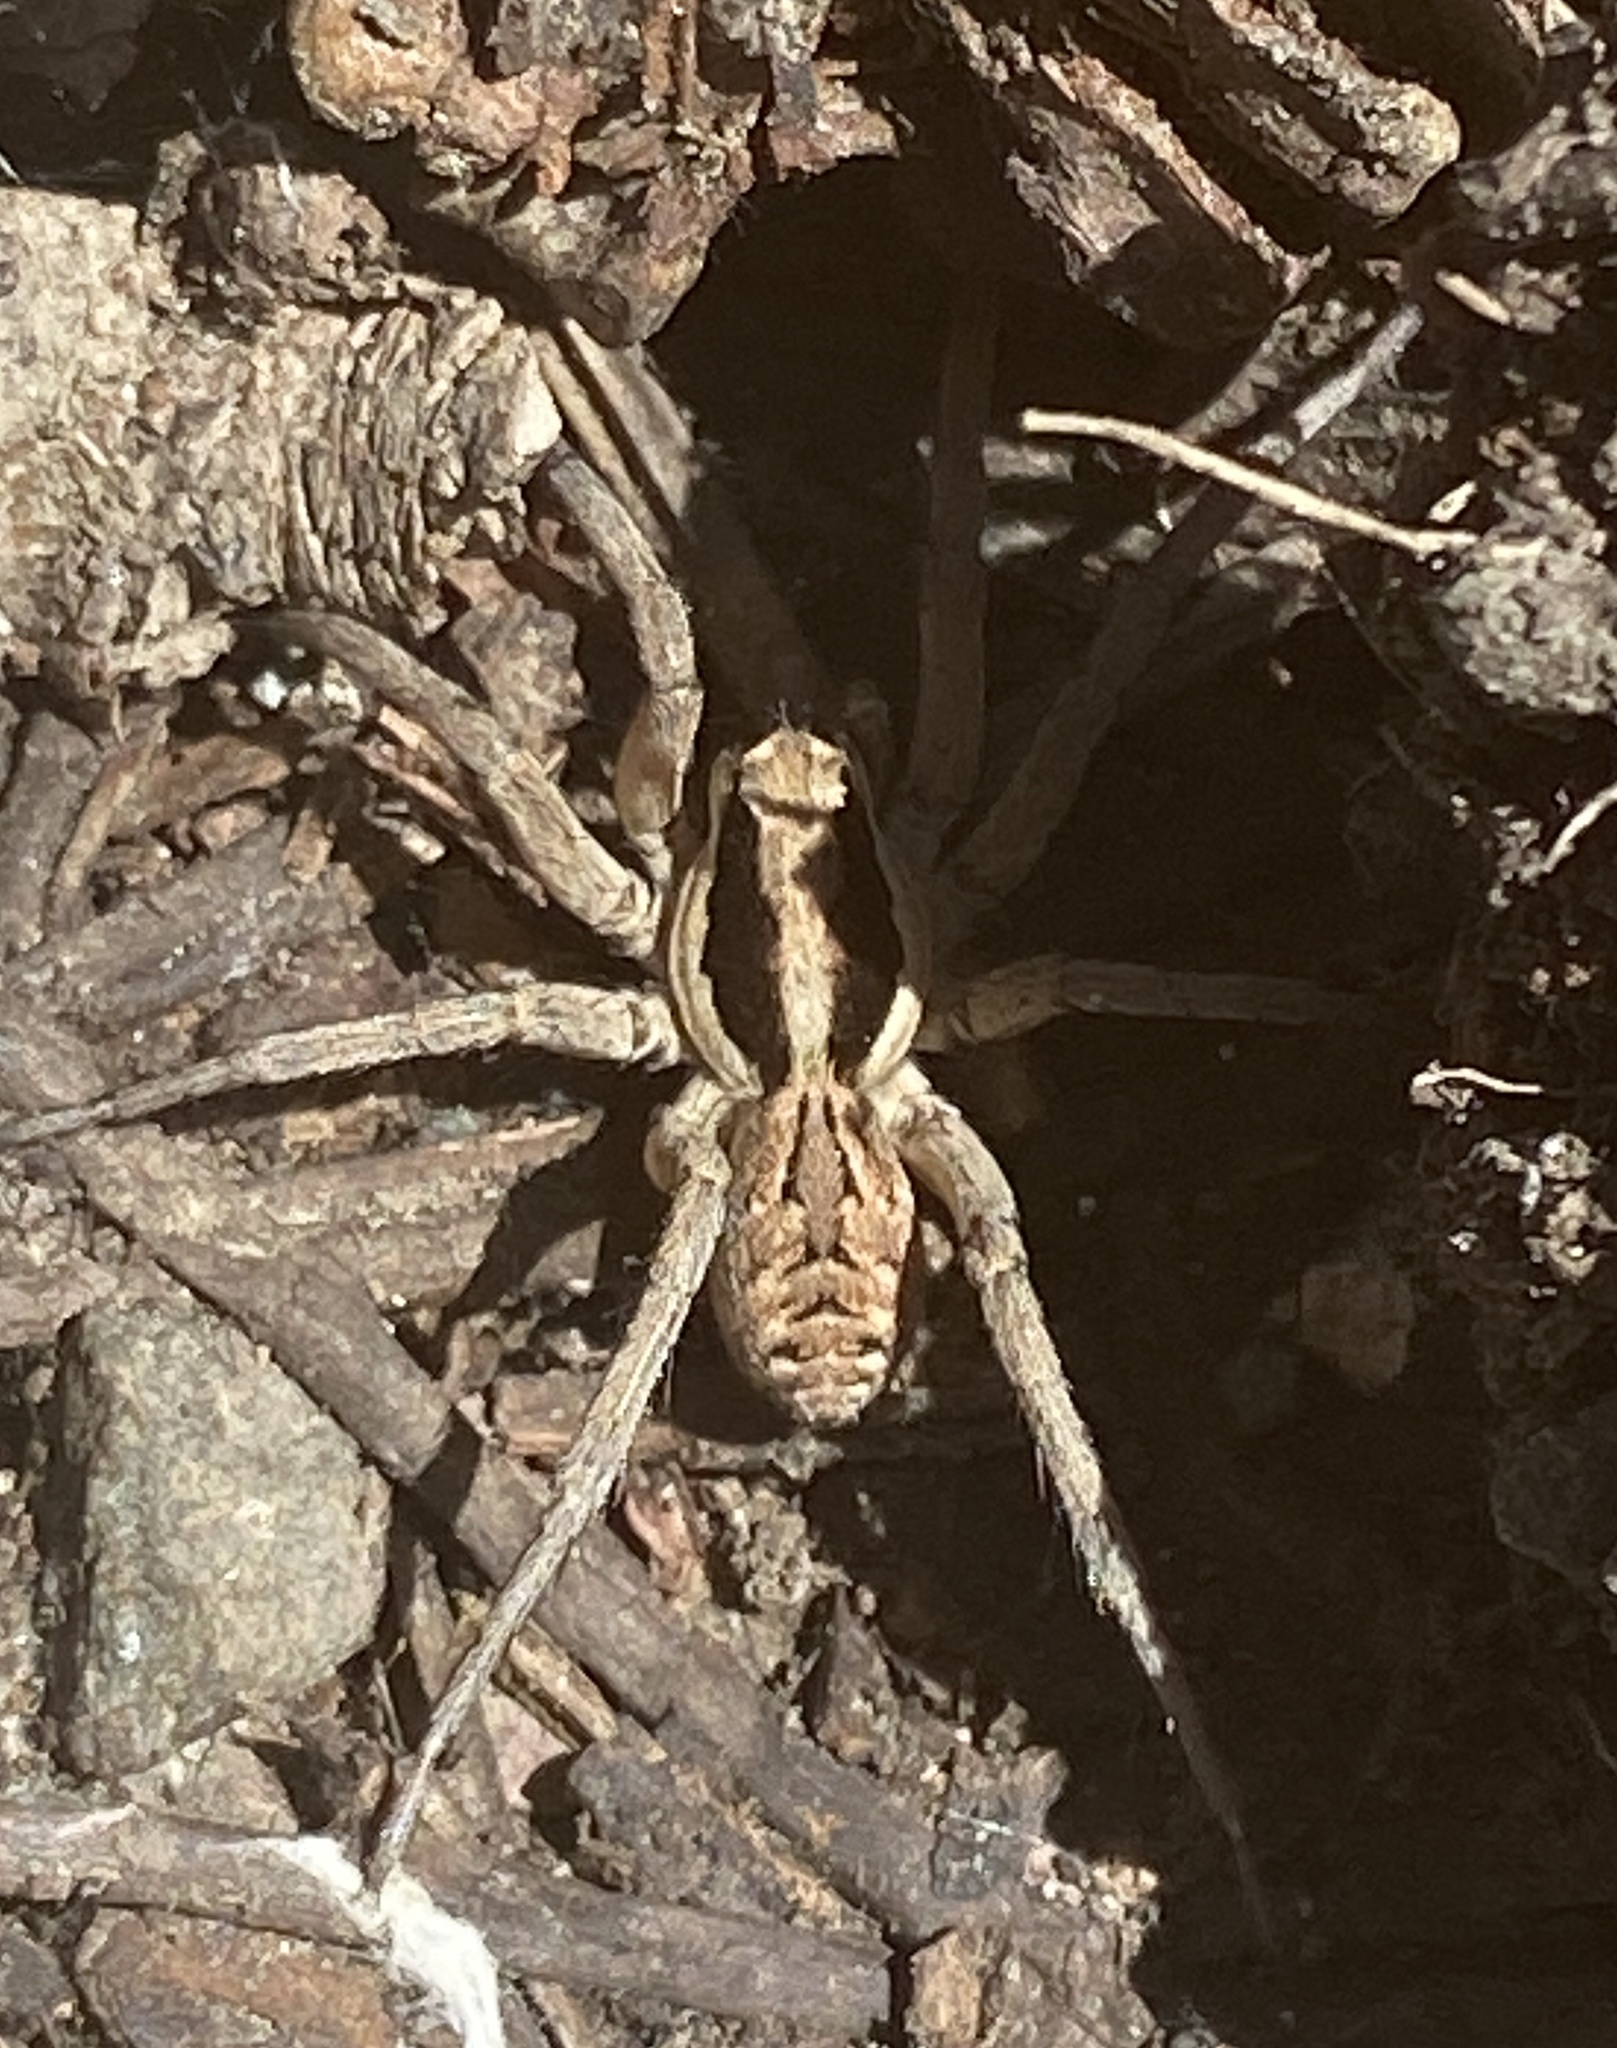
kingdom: Animalia
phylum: Arthropoda
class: Arachnida
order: Araneae
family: Lycosidae
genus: Lycosa
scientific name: Lycosa praegrandis
